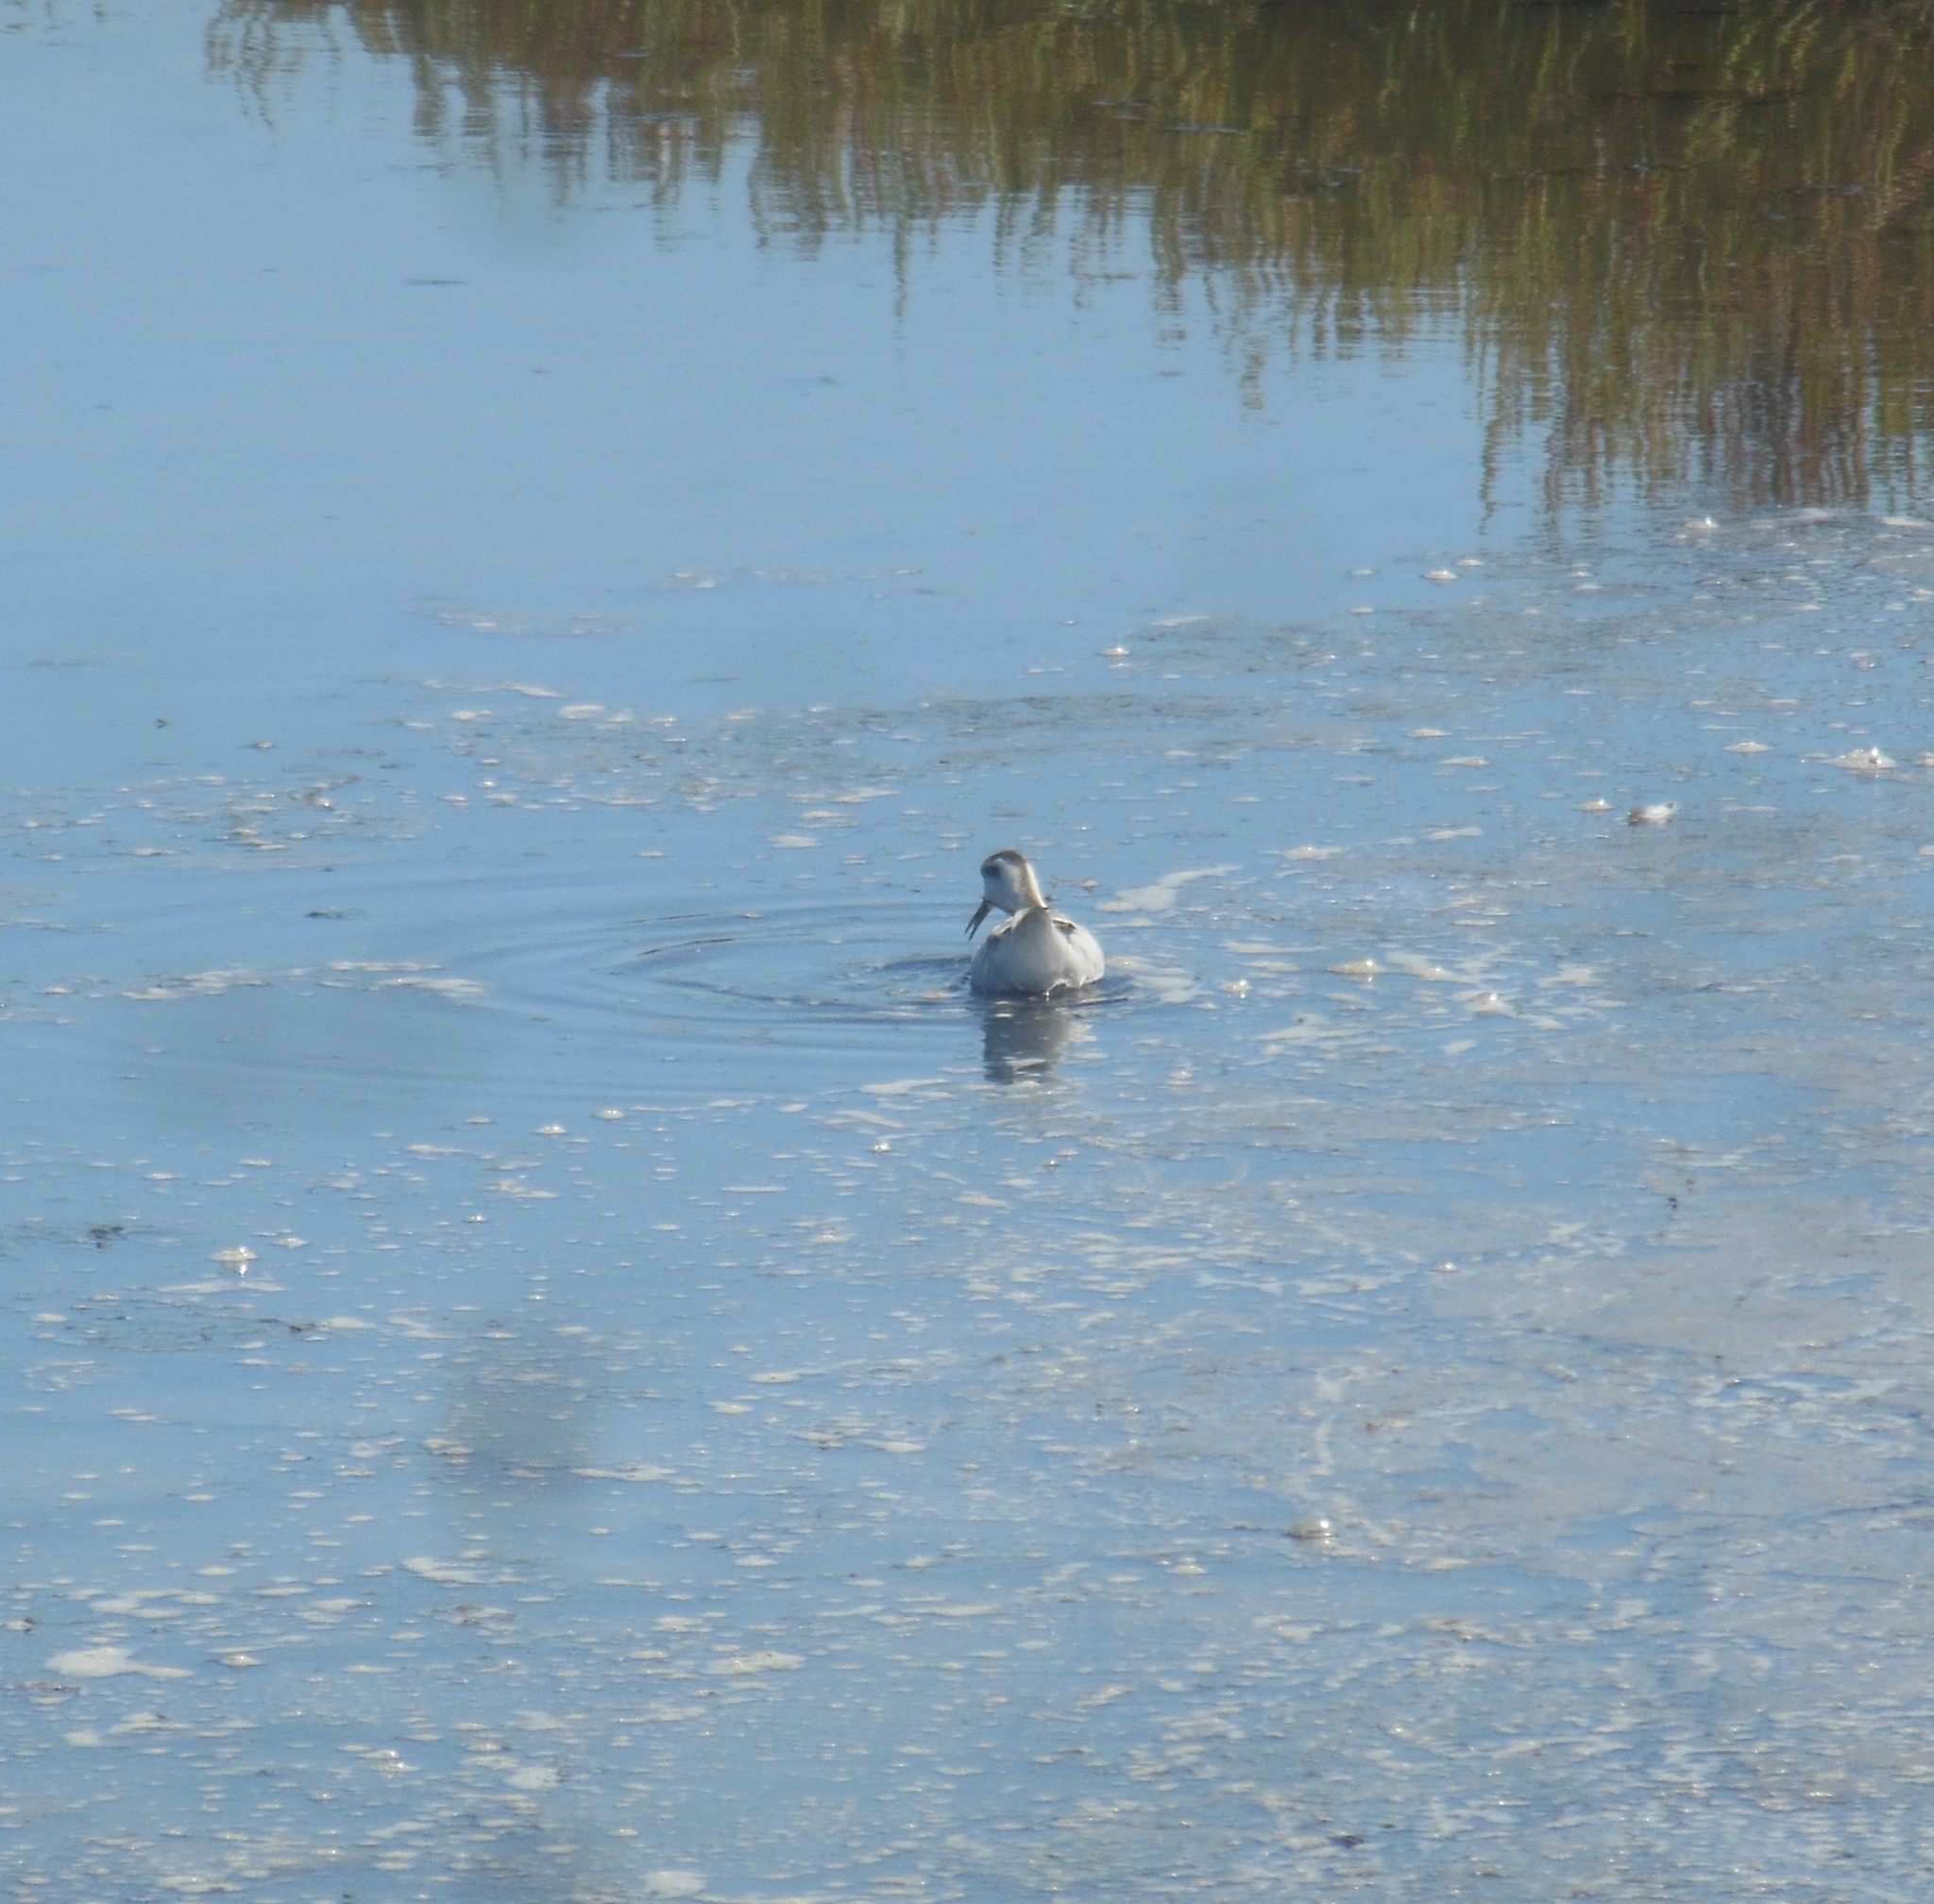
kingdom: Animalia
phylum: Chordata
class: Aves
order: Charadriiformes
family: Scolopacidae
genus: Phalaropus
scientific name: Phalaropus lobatus
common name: Red-necked phalarope
